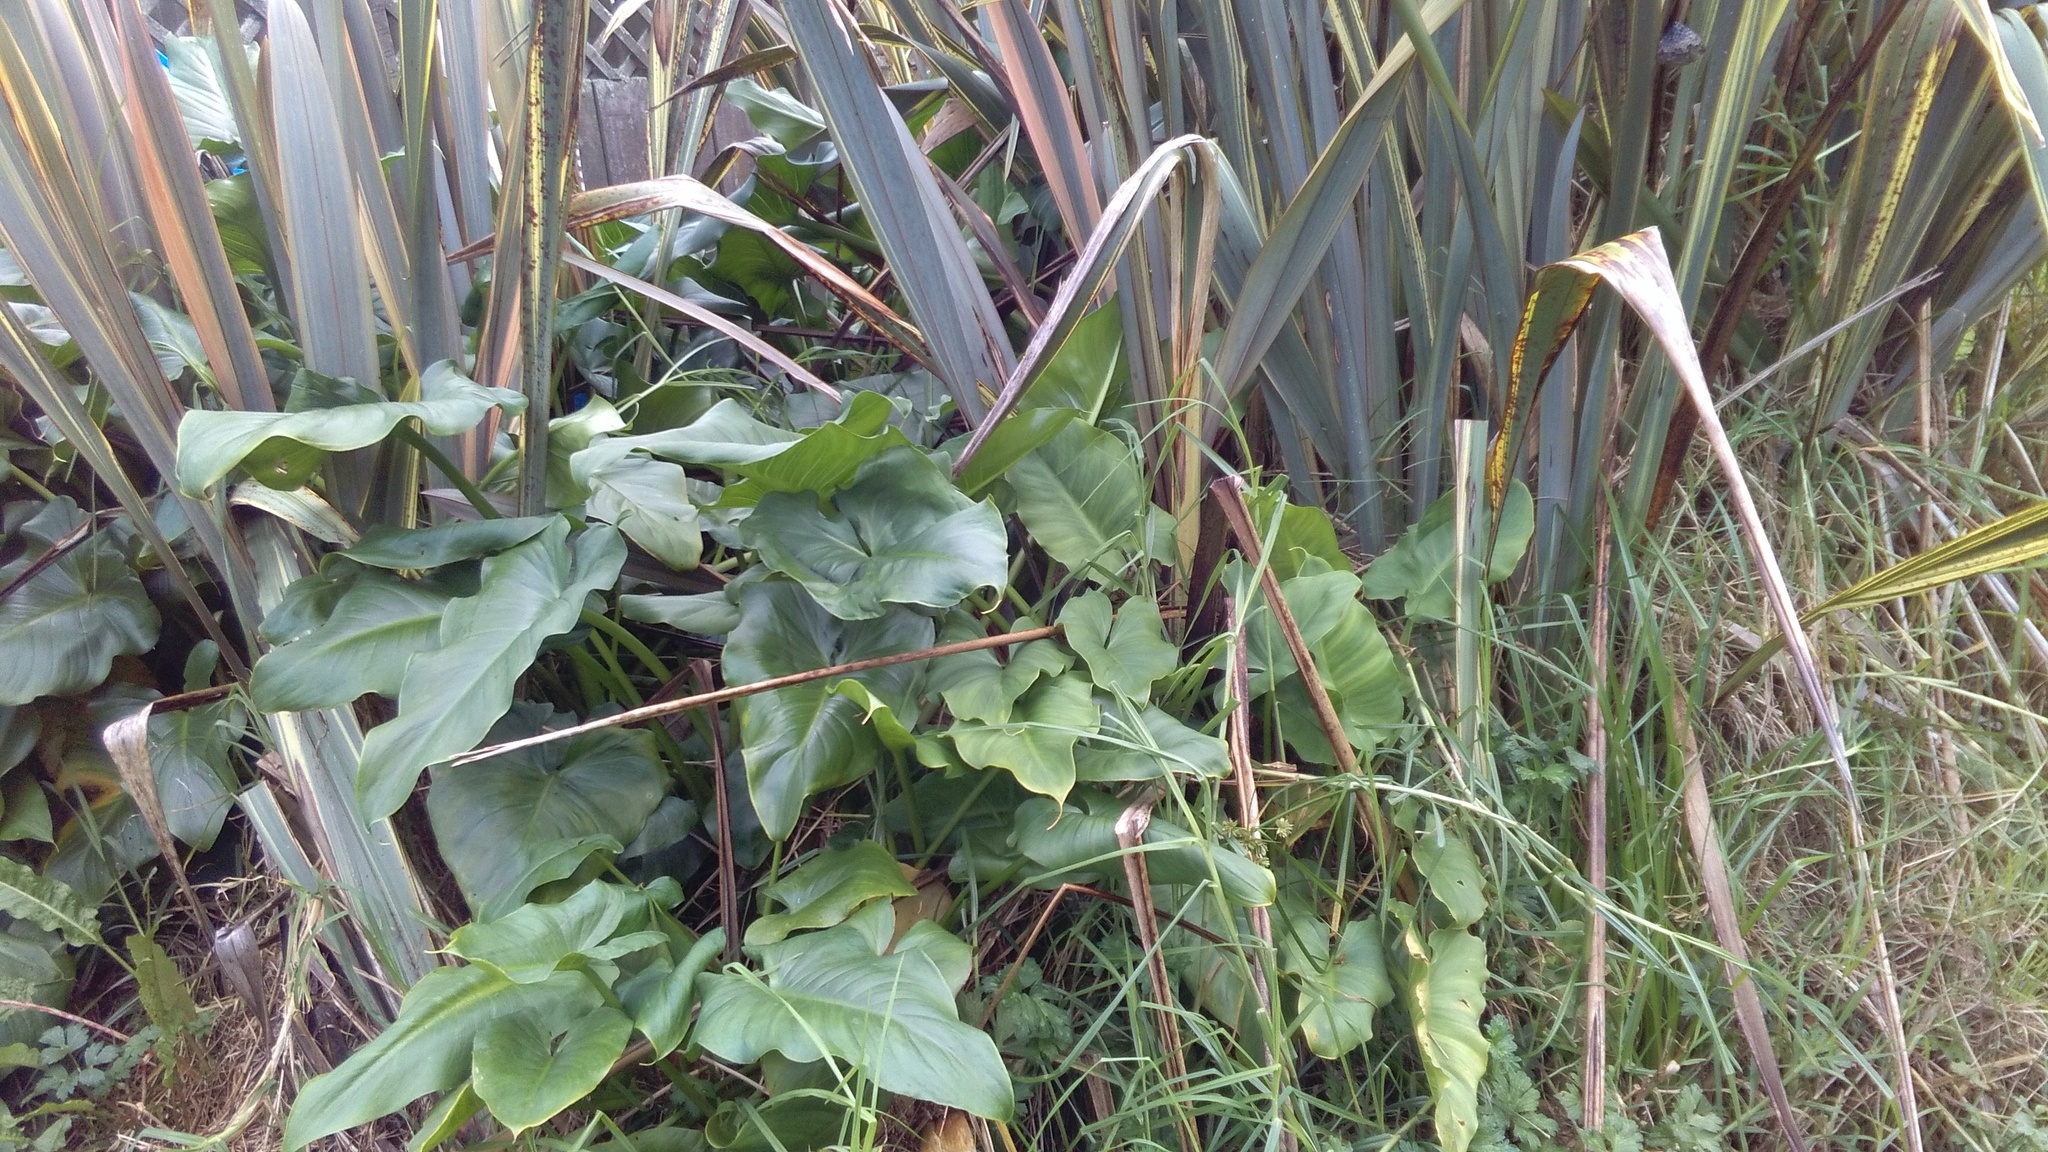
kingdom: Plantae
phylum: Tracheophyta
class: Liliopsida
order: Alismatales
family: Araceae
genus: Zantedeschia
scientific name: Zantedeschia aethiopica
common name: Altar-lily
